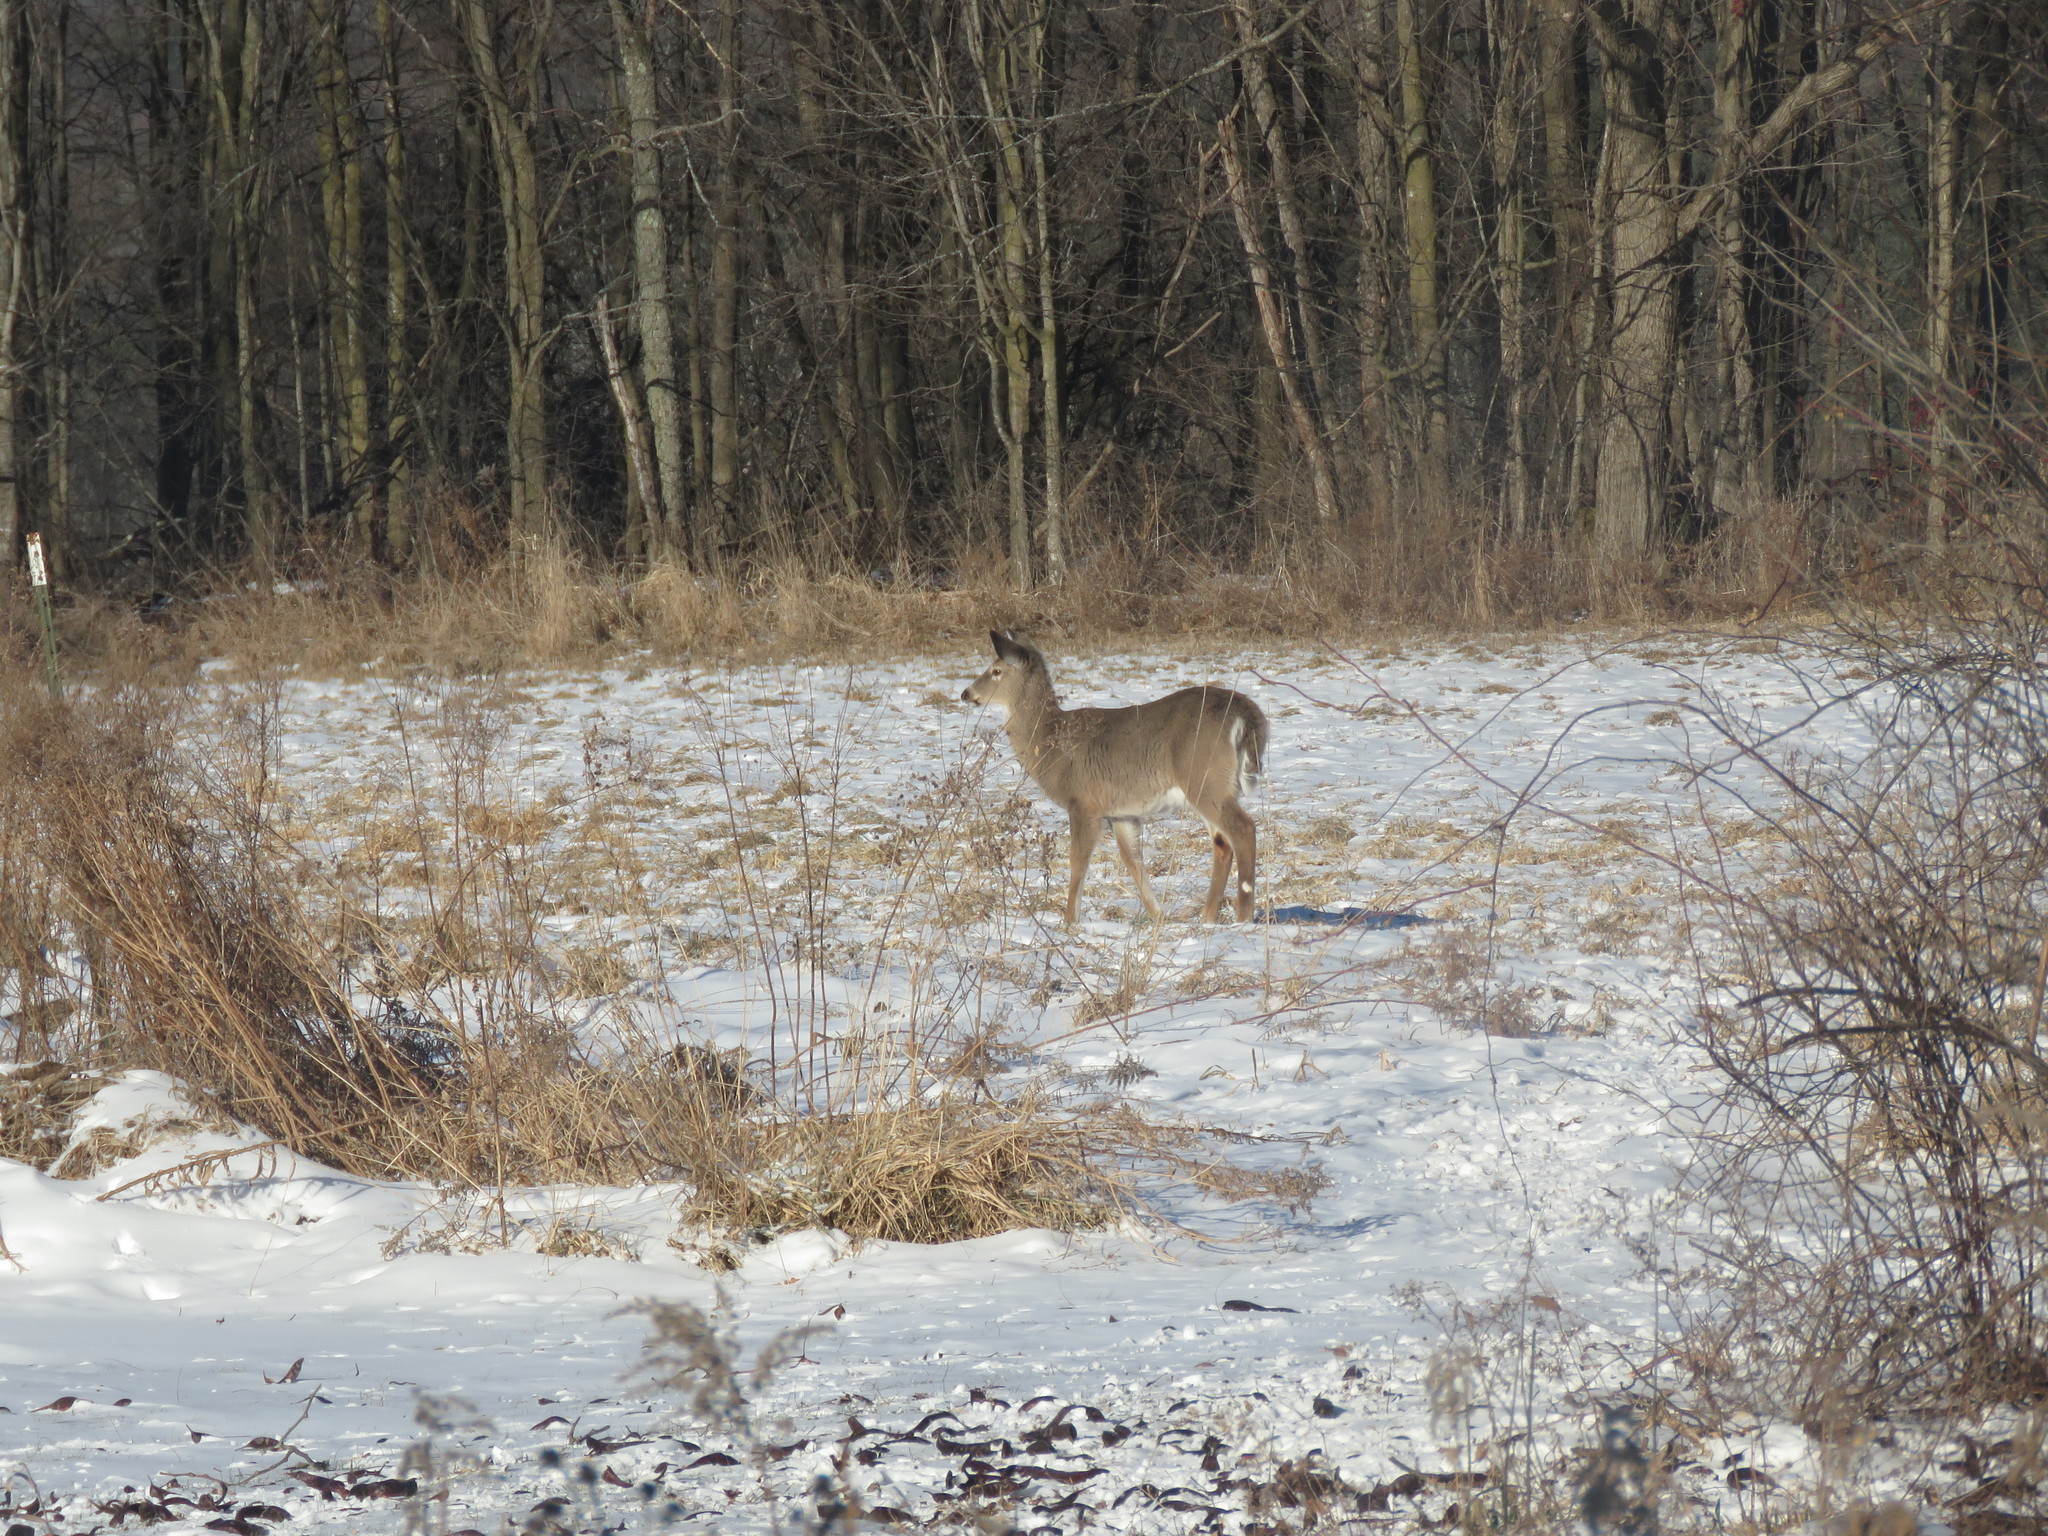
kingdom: Animalia
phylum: Chordata
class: Mammalia
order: Artiodactyla
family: Cervidae
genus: Odocoileus
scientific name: Odocoileus virginianus
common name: White-tailed deer
